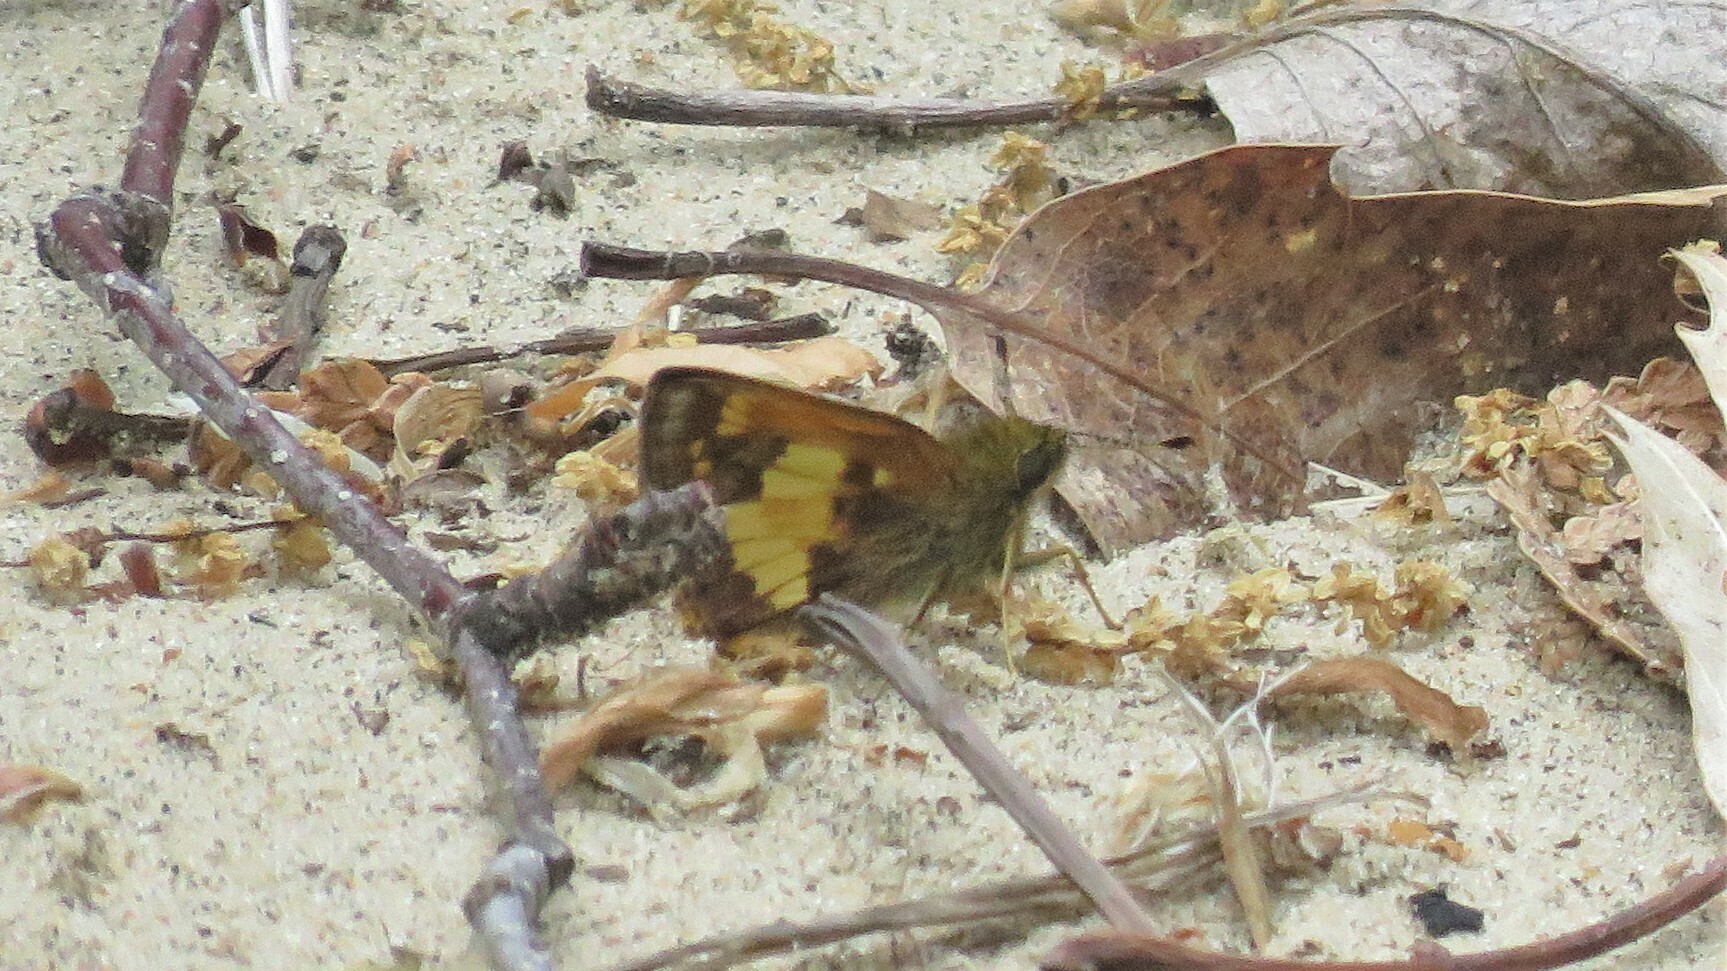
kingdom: Animalia
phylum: Arthropoda
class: Insecta
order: Lepidoptera
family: Hesperiidae
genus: Lon
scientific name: Lon hobomok
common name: Hobomok skipper
